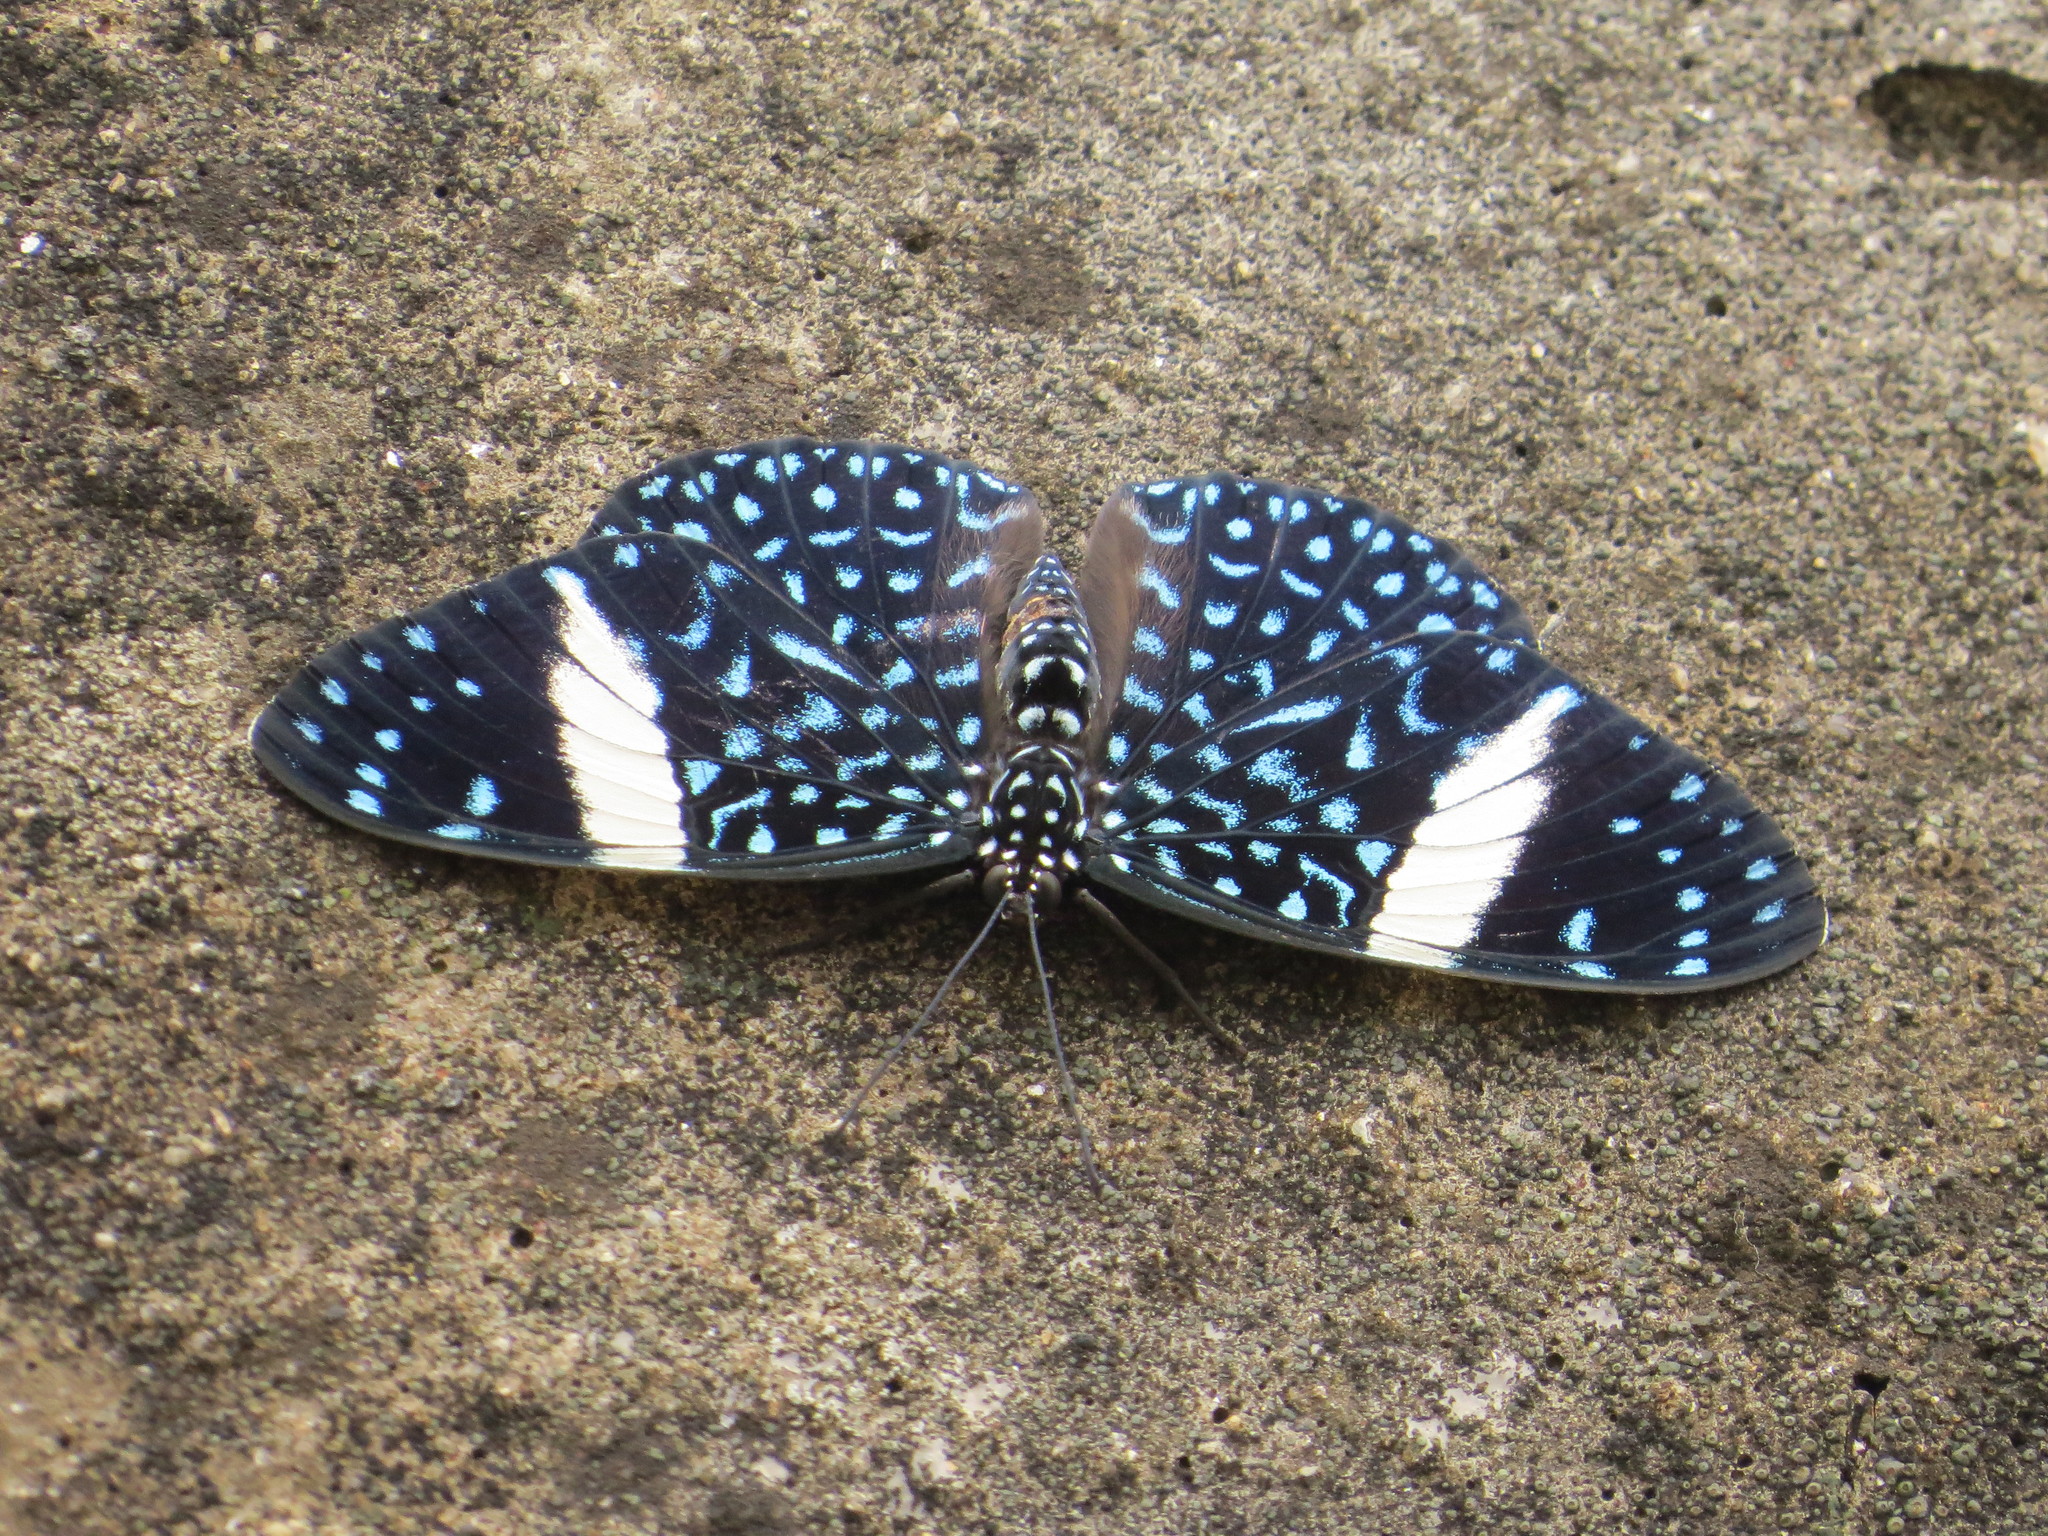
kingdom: Animalia
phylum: Arthropoda
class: Insecta
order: Lepidoptera
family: Nymphalidae
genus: Hamadryas
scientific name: Hamadryas laodamia
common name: Starry night cracker
